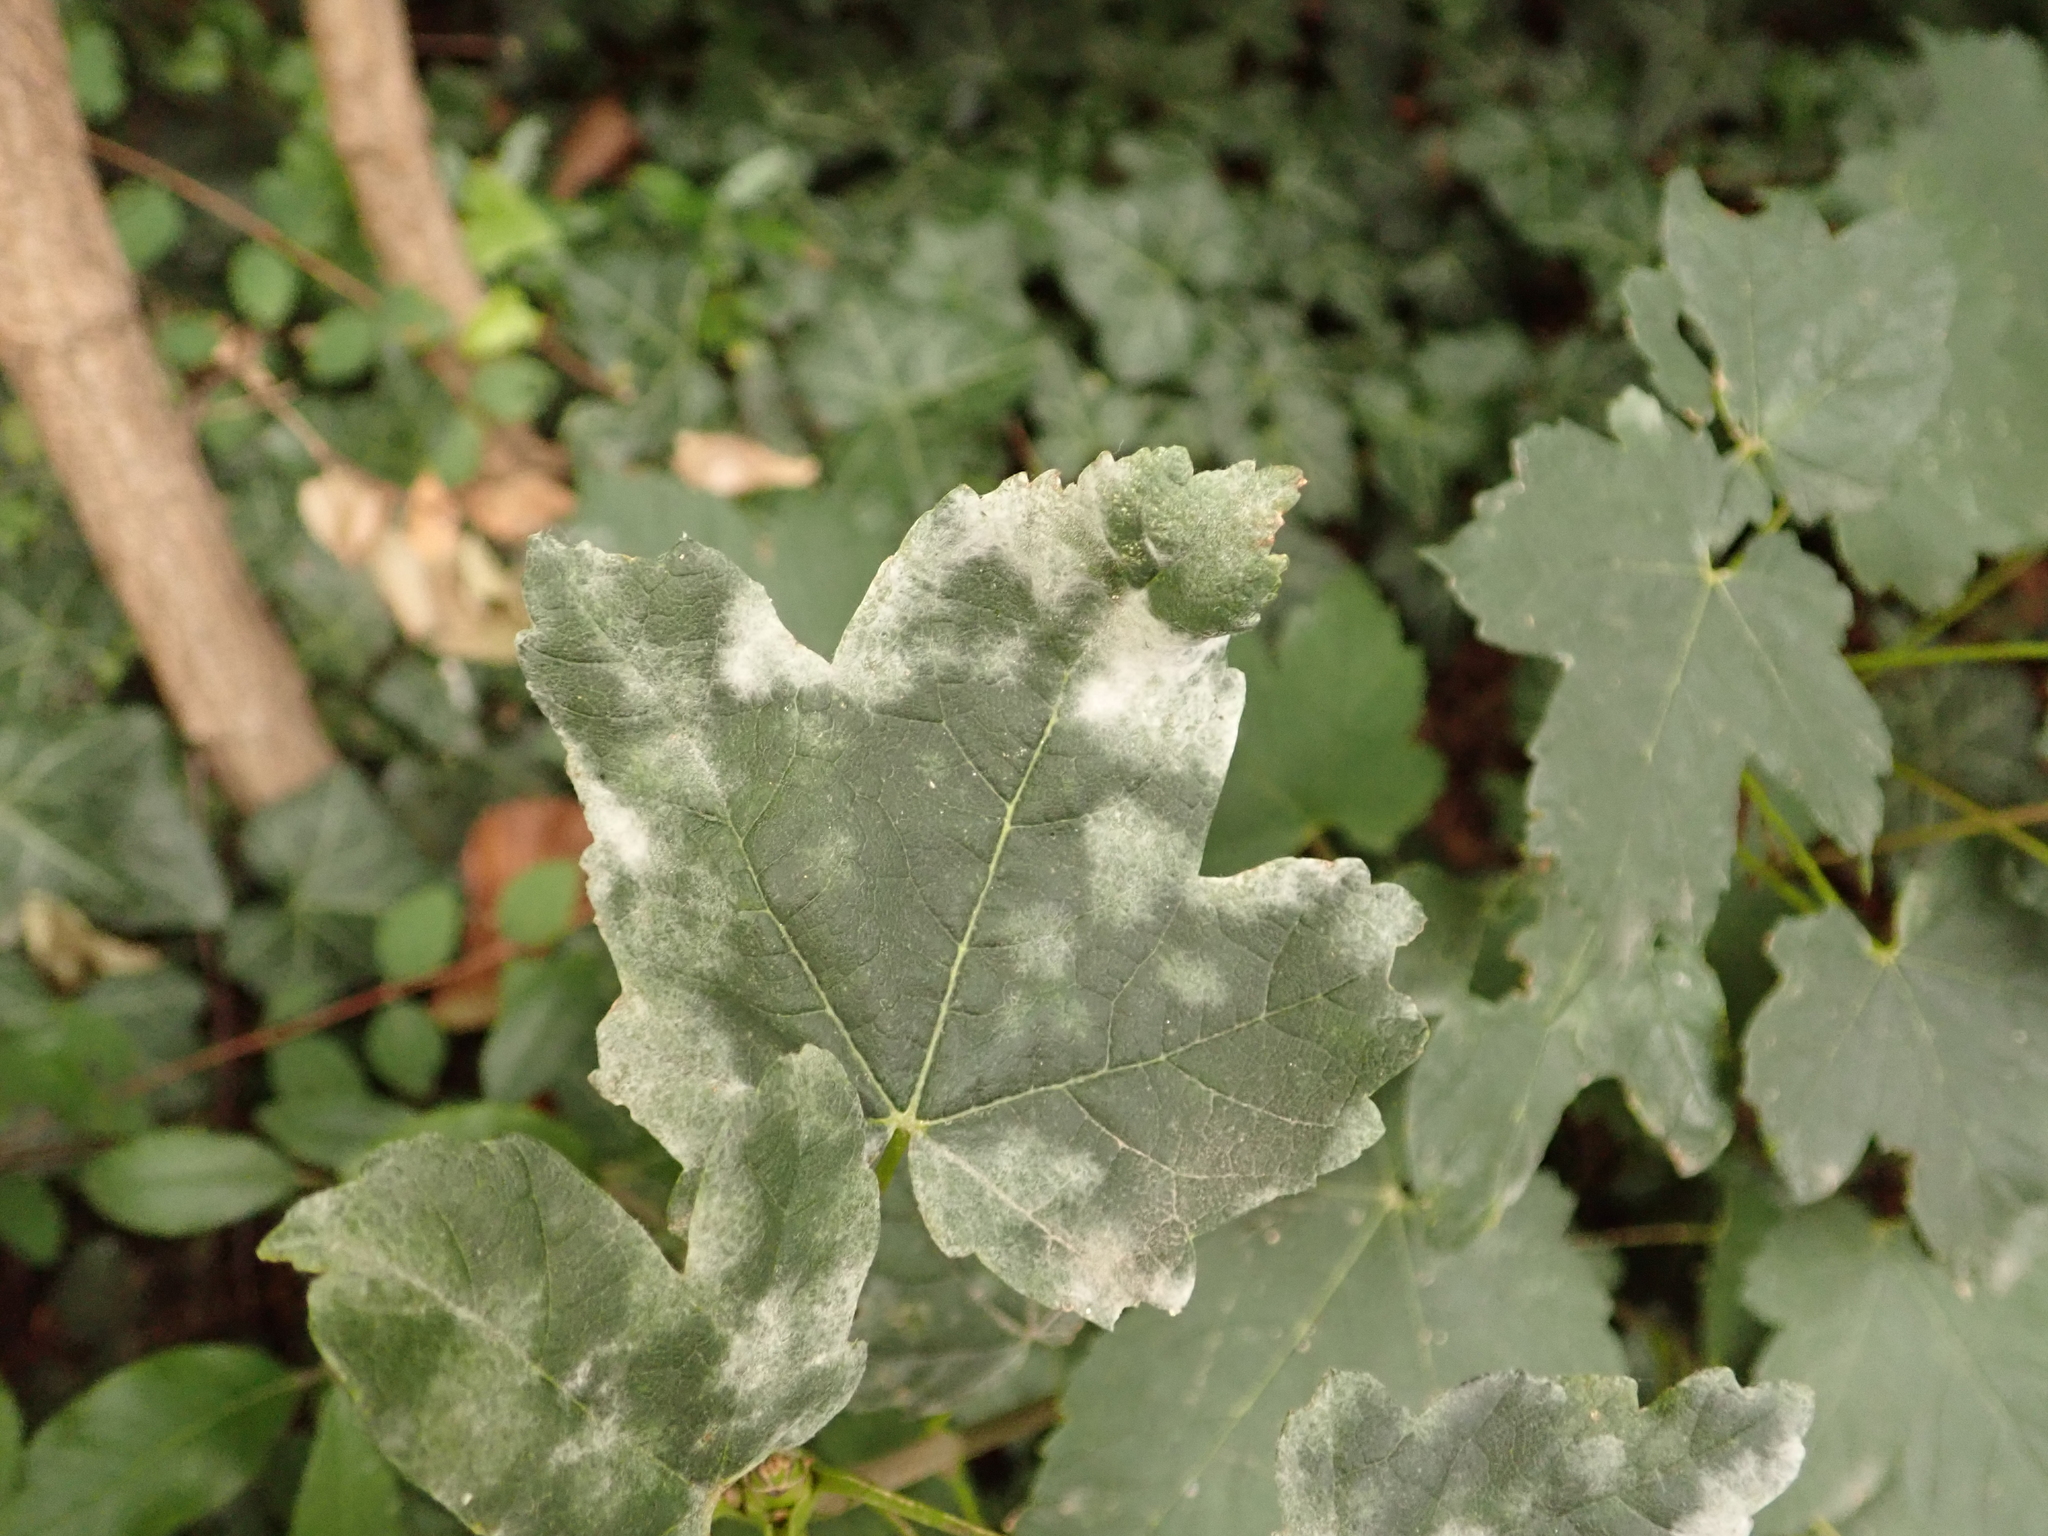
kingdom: Plantae
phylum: Tracheophyta
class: Magnoliopsida
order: Sapindales
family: Sapindaceae
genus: Acer
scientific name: Acer pseudoplatanus
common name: Sycamore
